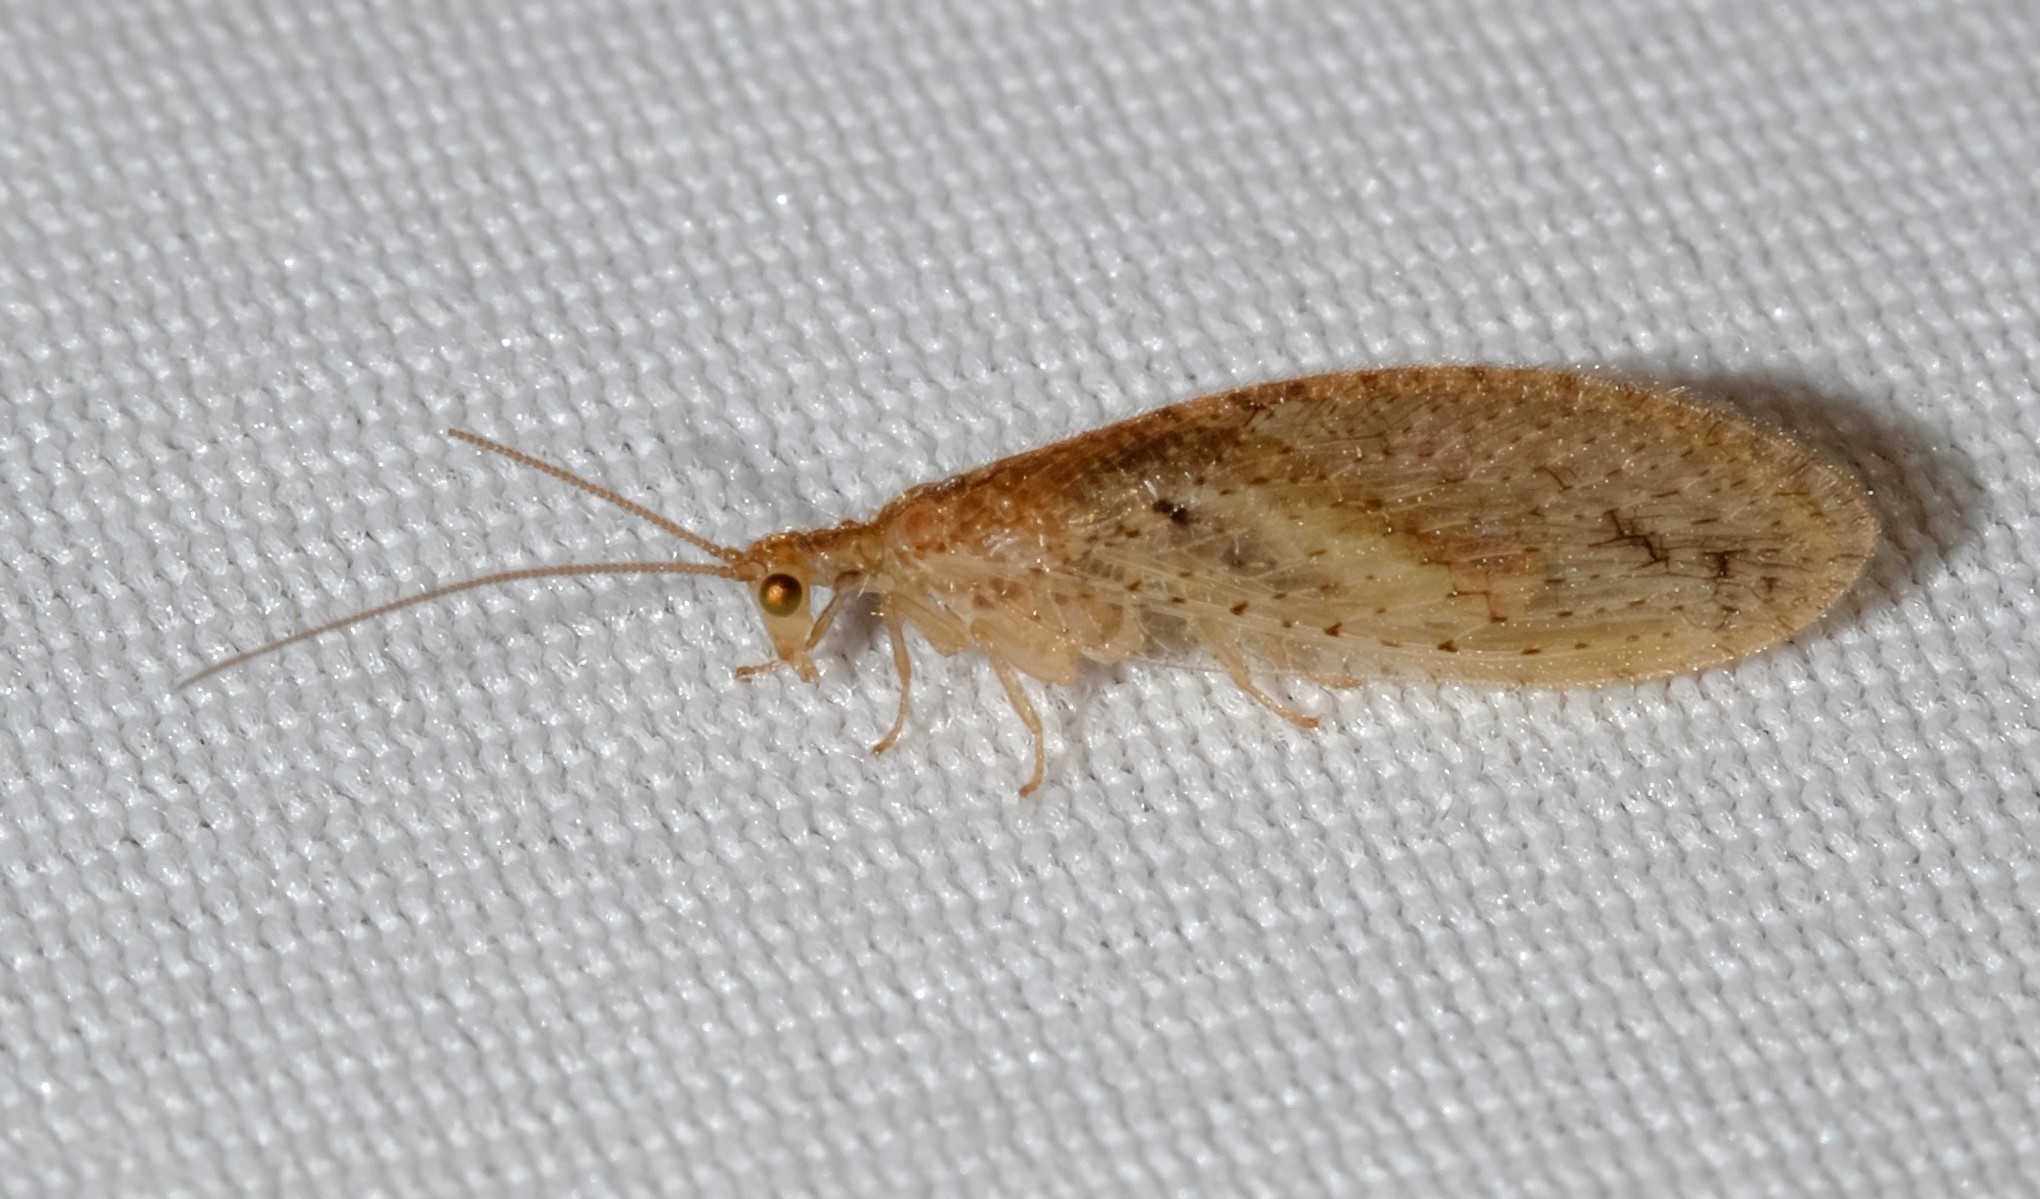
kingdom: Animalia
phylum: Arthropoda
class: Insecta
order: Neuroptera
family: Hemerobiidae
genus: Micromus
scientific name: Micromus tasmaniae
